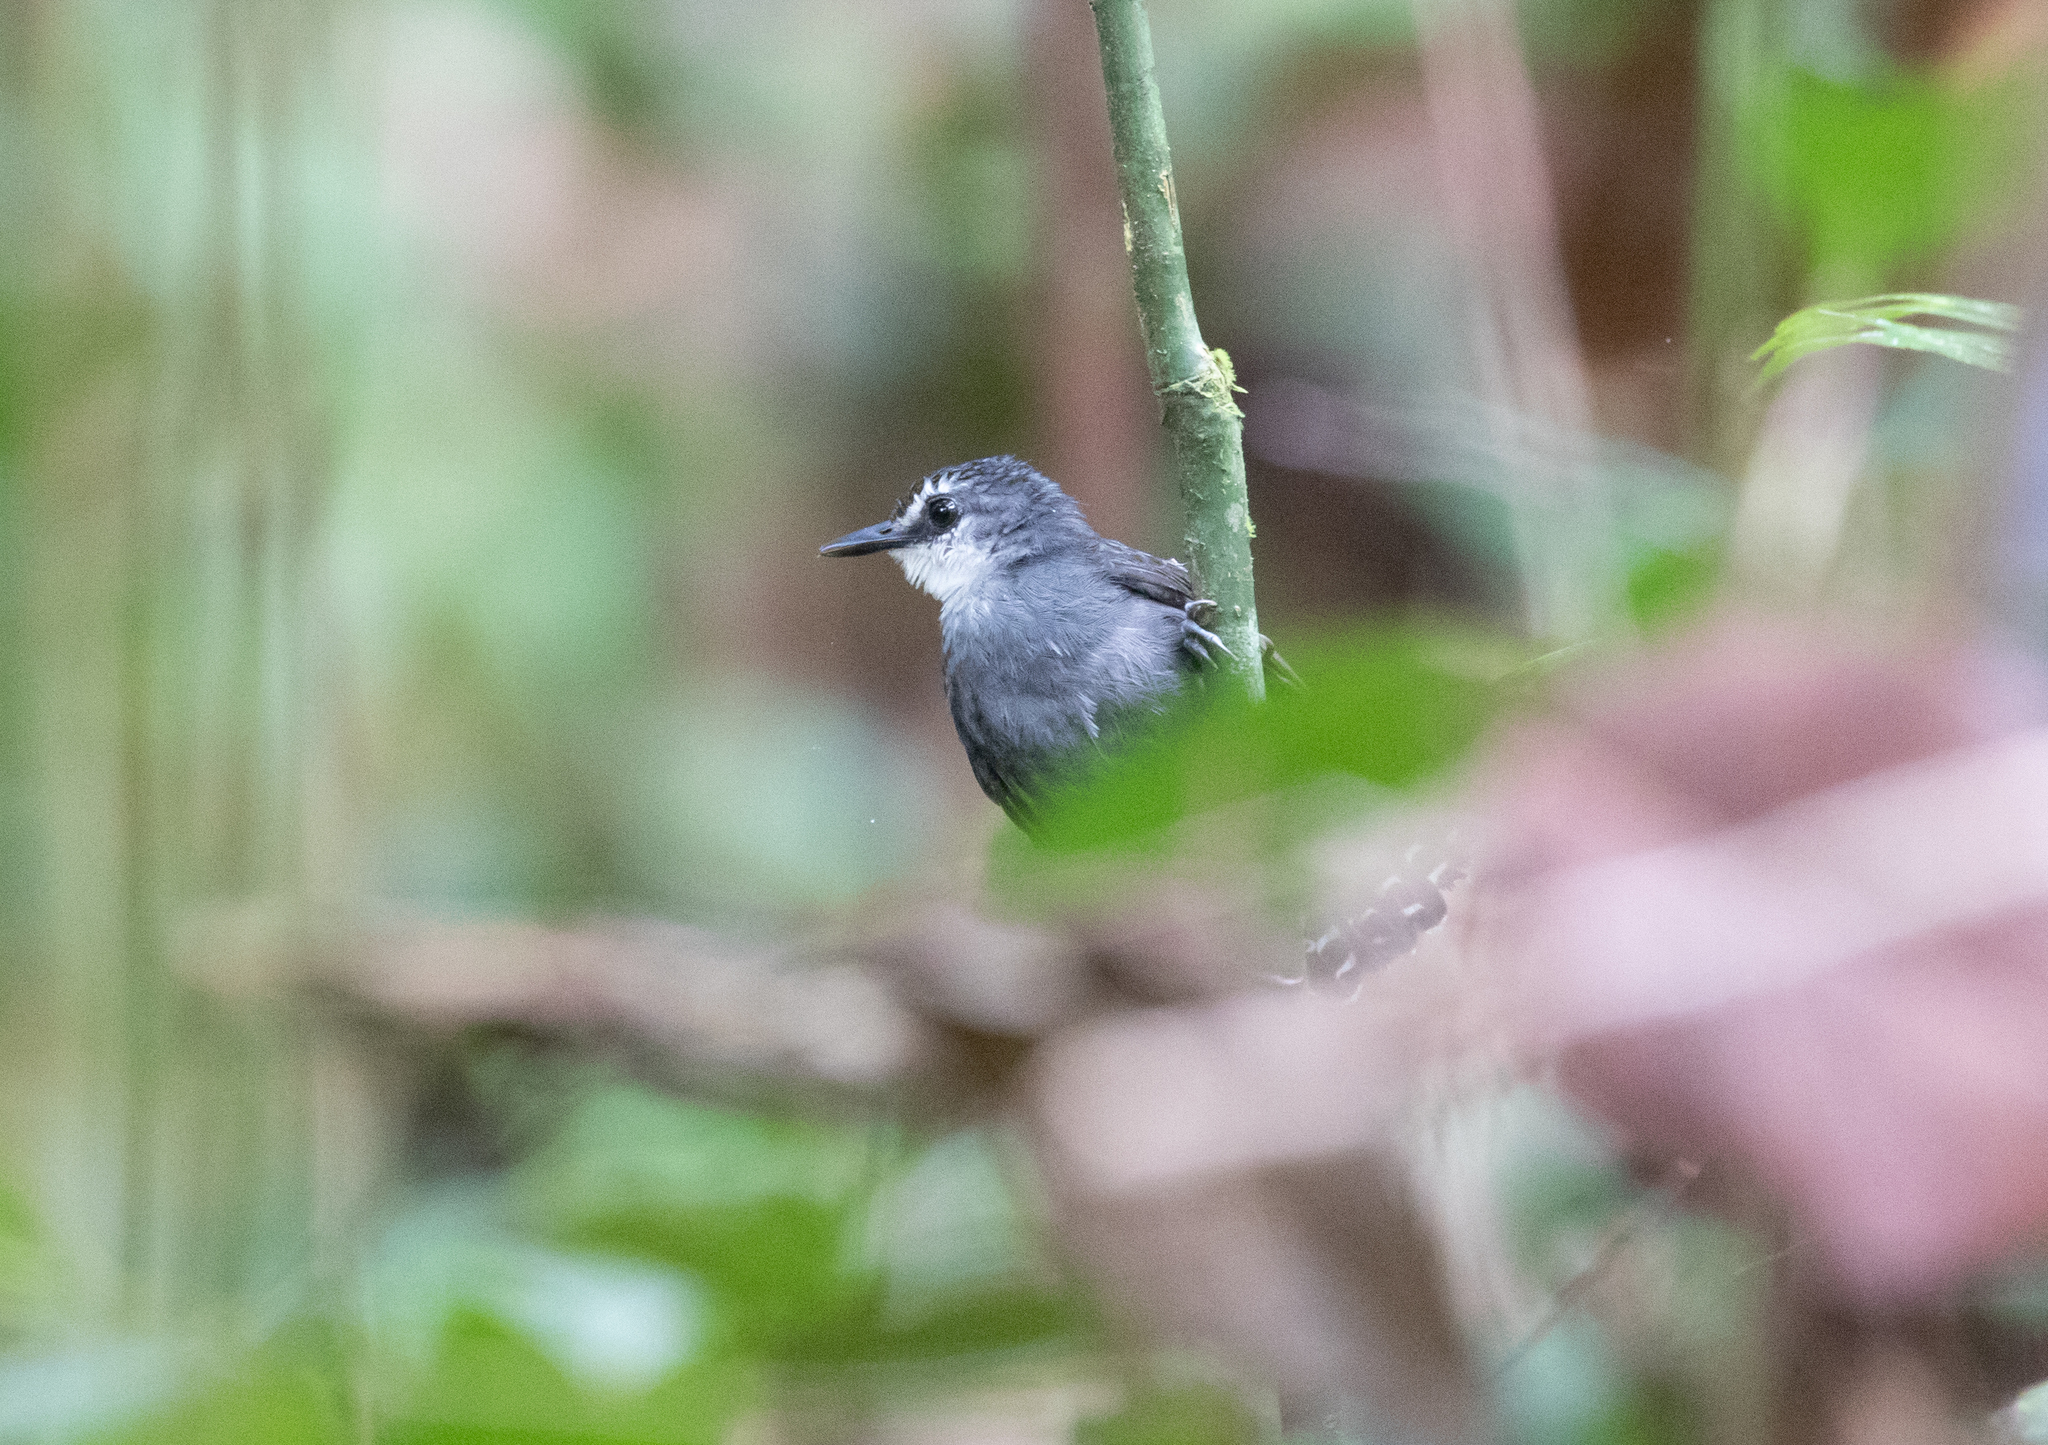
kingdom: Animalia
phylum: Chordata
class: Aves
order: Passeriformes
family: Thamnophilidae
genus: Gymnopithys
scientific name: Gymnopithys salvini
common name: White-throated antbird
